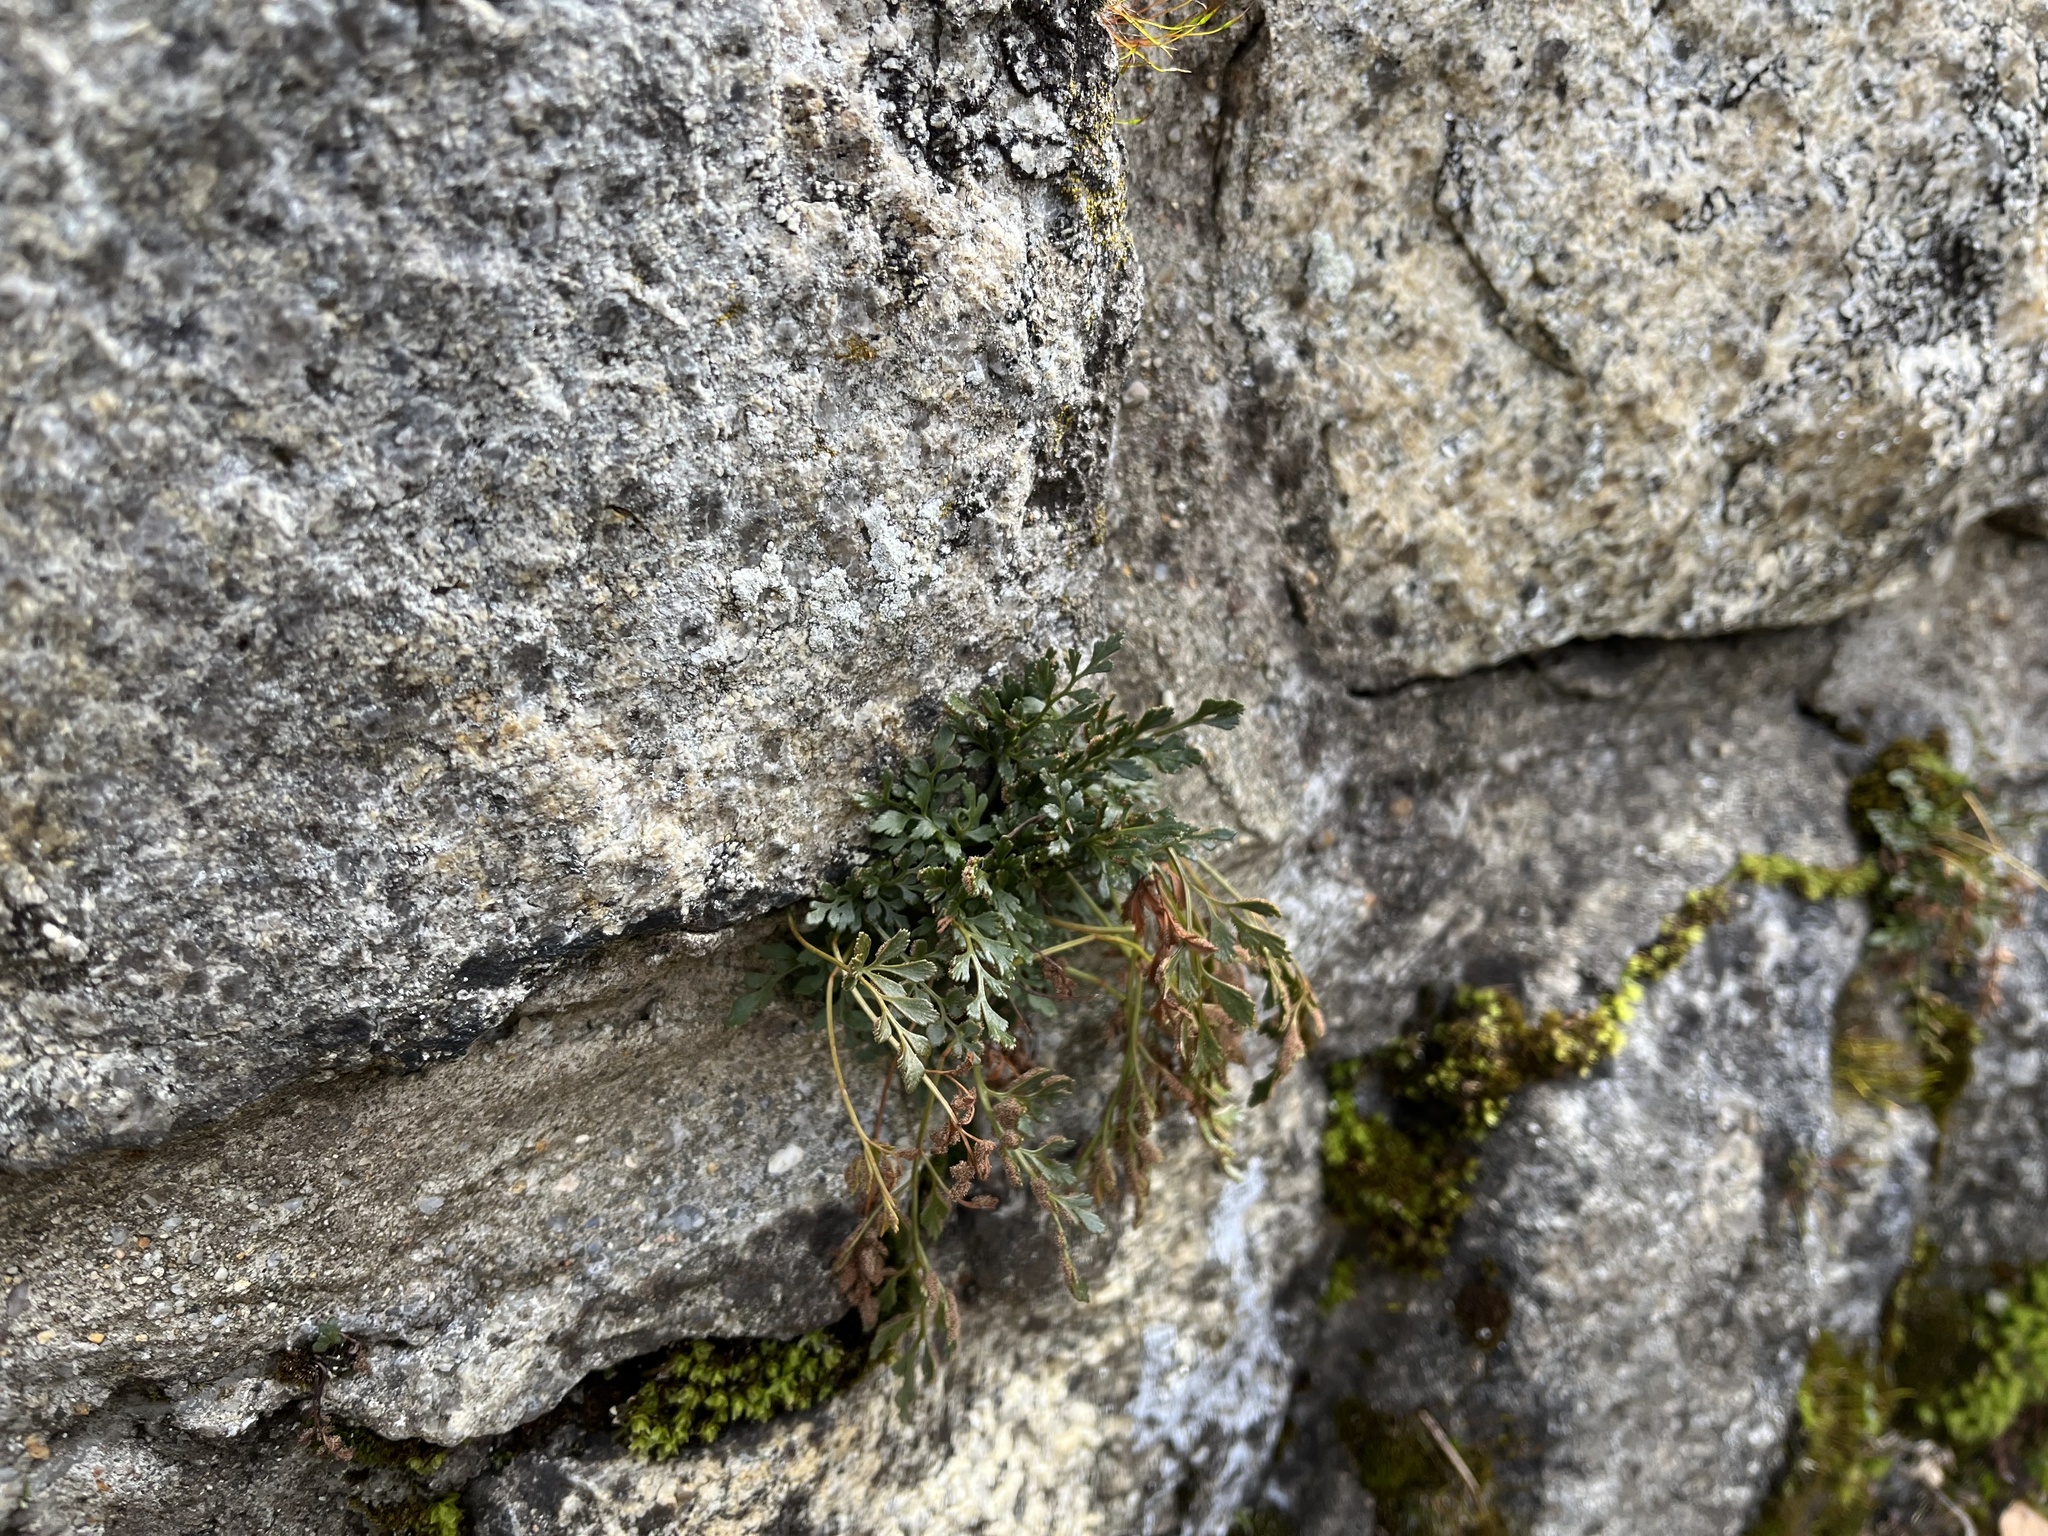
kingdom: Plantae
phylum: Tracheophyta
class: Polypodiopsida
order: Polypodiales
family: Aspleniaceae
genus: Asplenium
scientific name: Asplenium ruta-muraria
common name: Wall-rue
